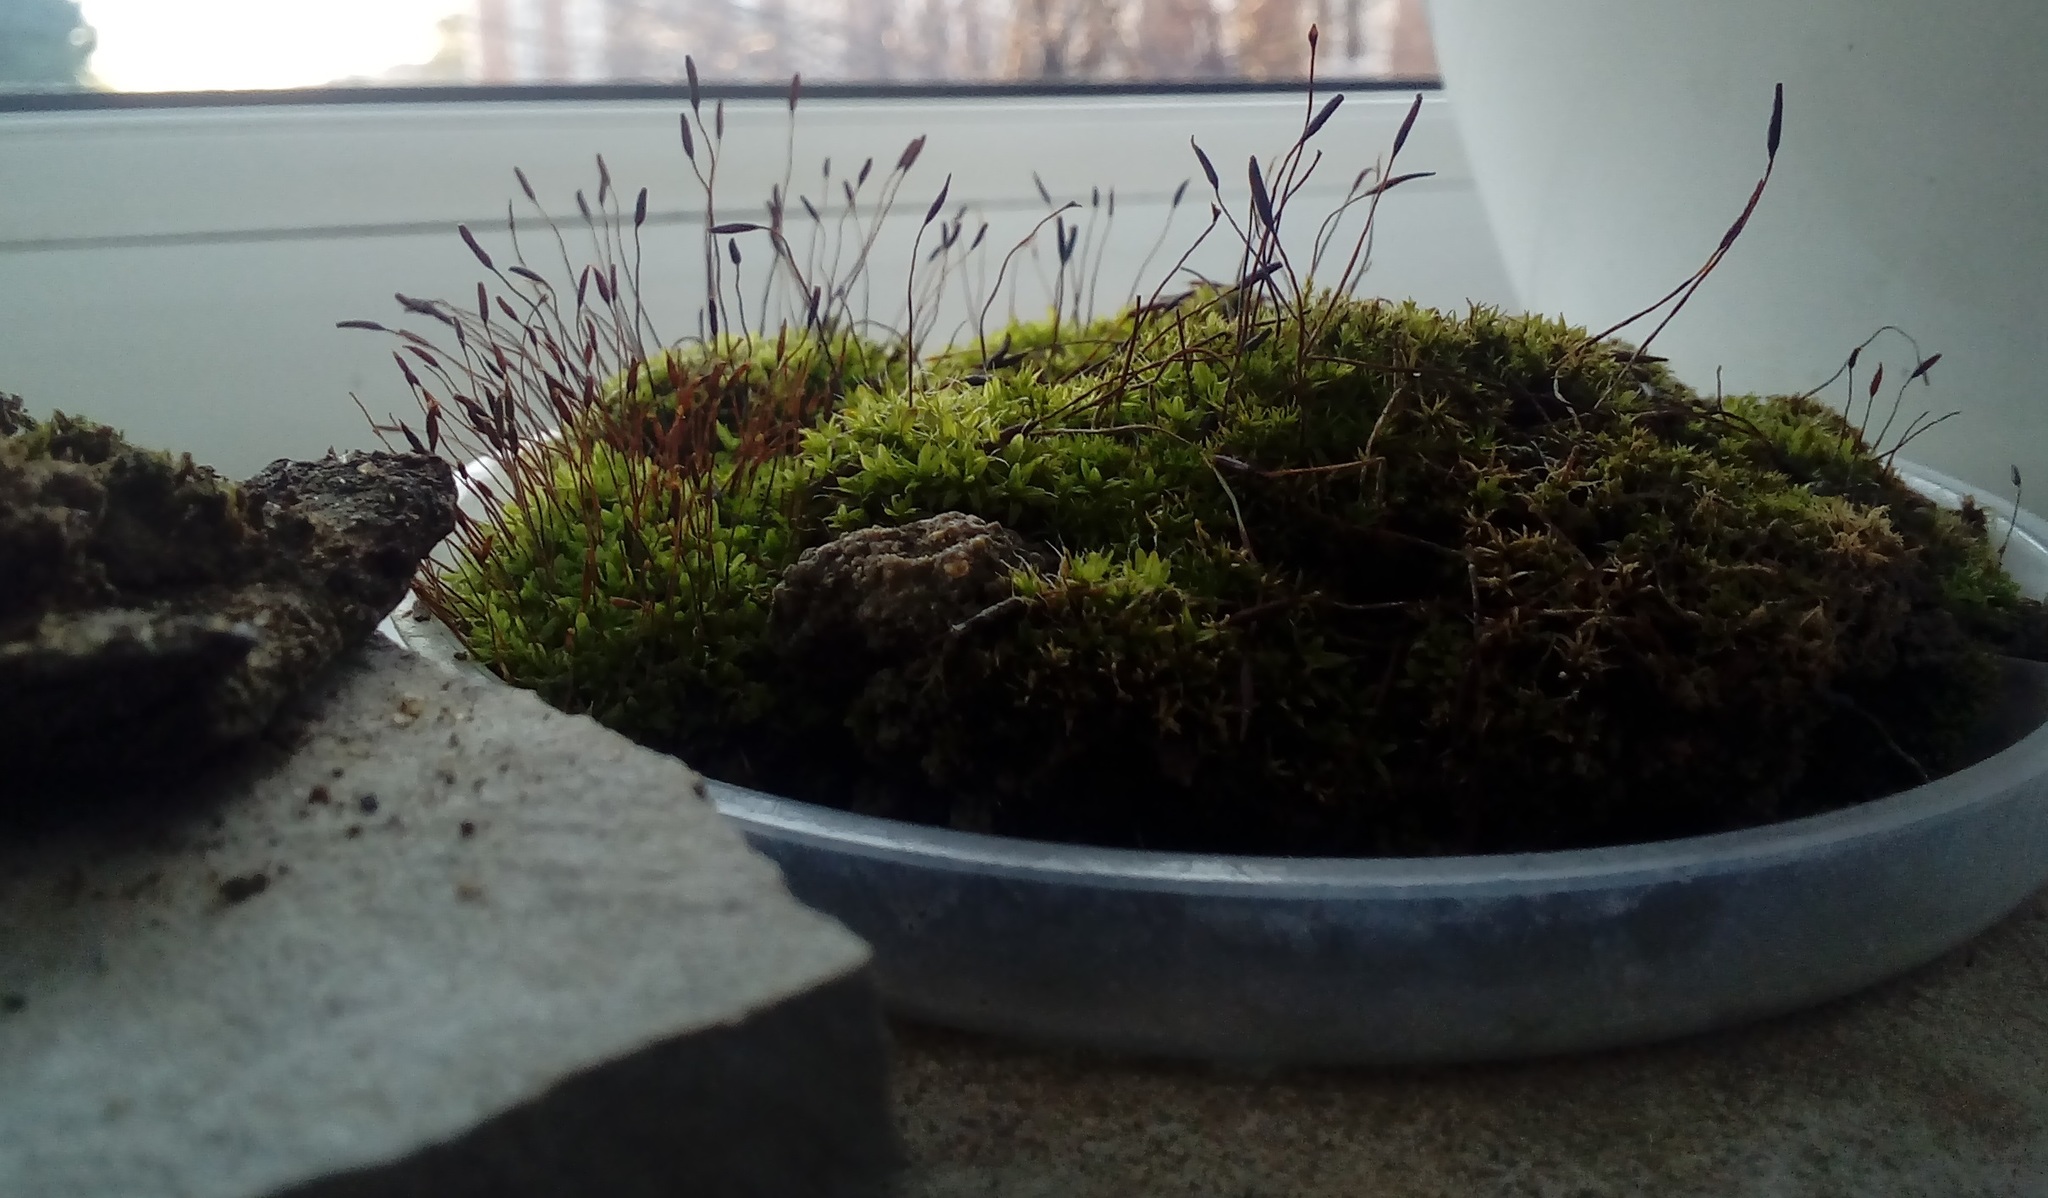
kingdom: Plantae
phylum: Bryophyta
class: Bryopsida
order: Pottiales
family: Pottiaceae
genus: Tortula
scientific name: Tortula muralis
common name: Wall screw-moss
